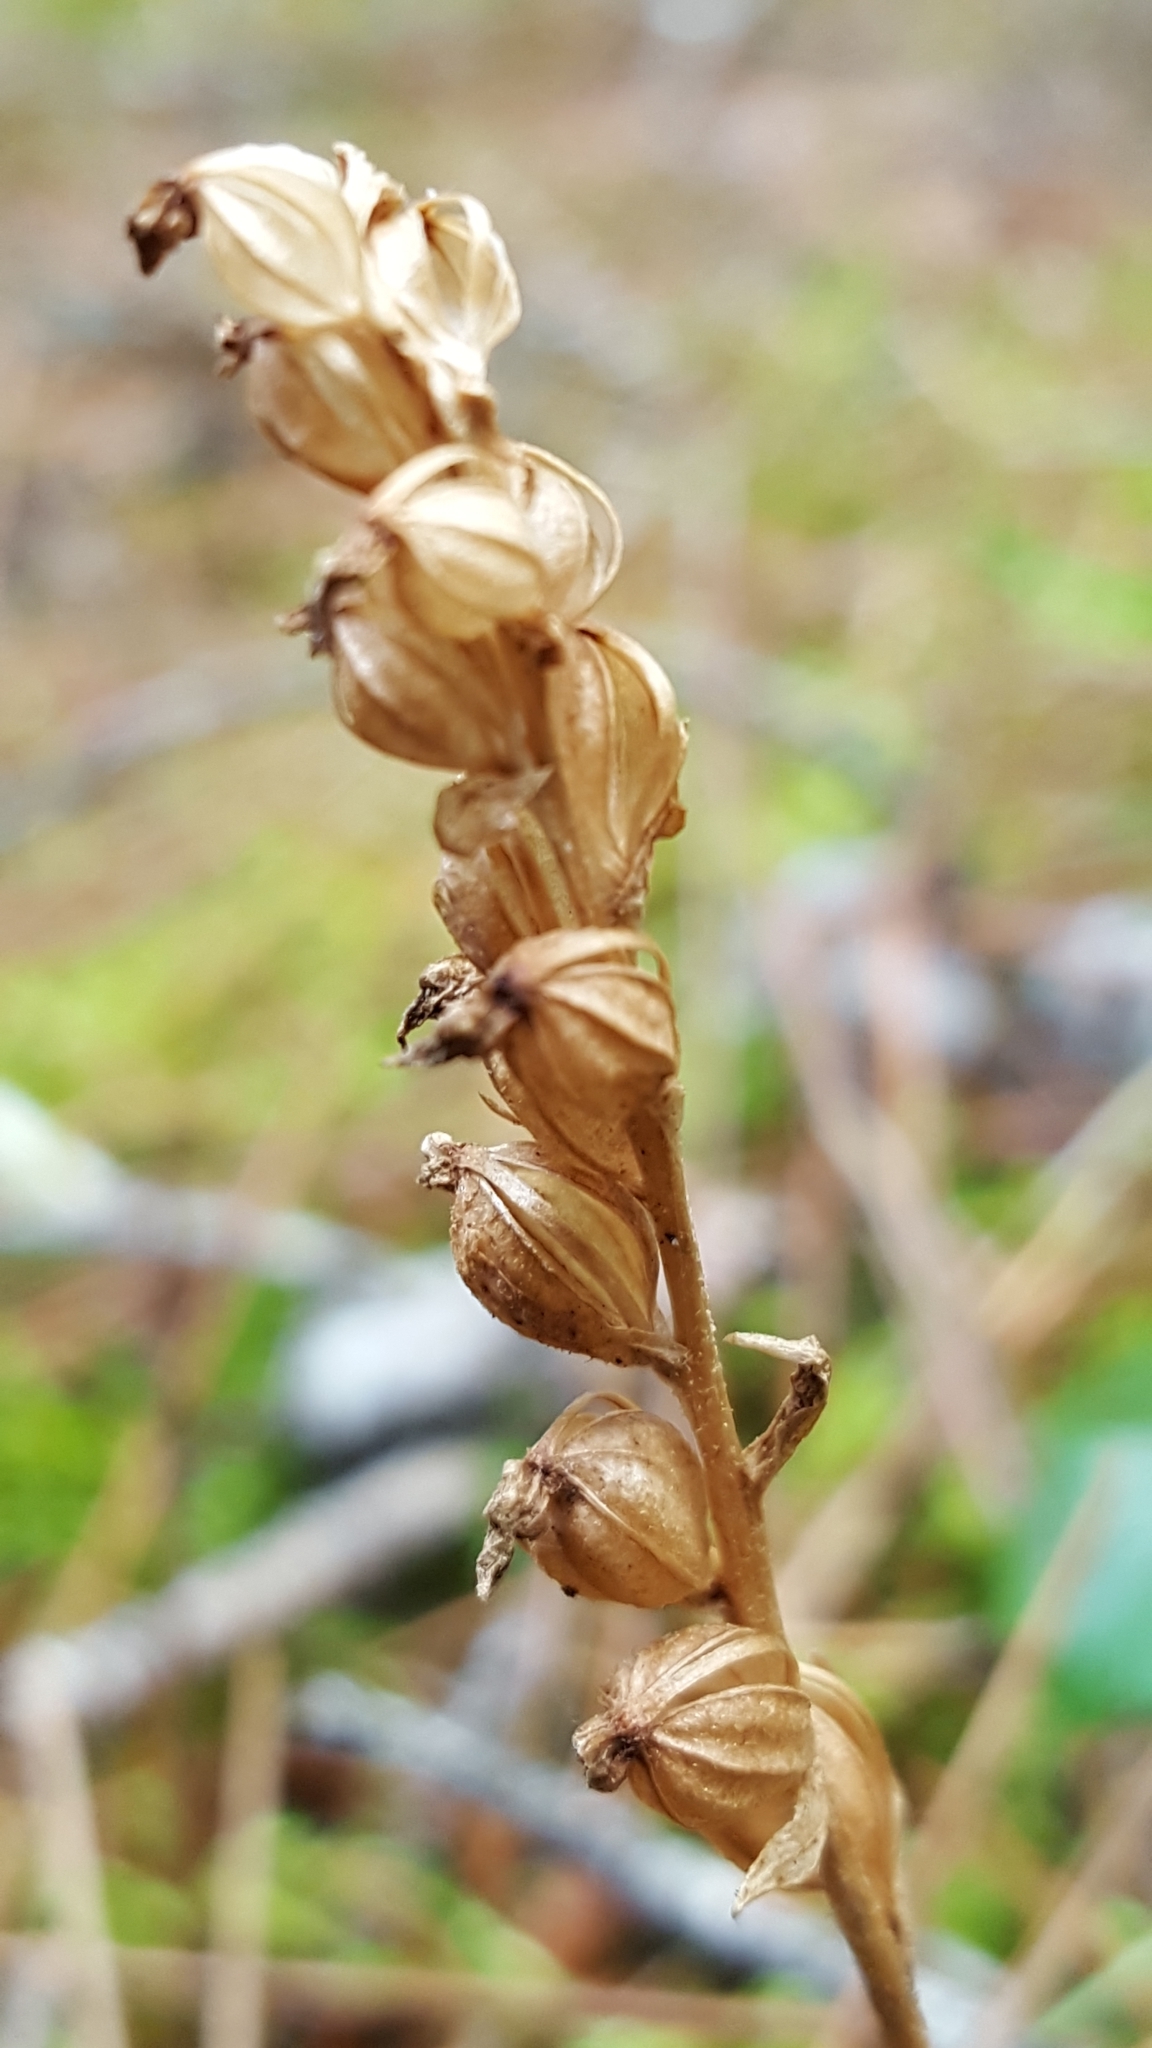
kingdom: Plantae
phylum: Tracheophyta
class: Liliopsida
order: Asparagales
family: Orchidaceae
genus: Goodyera
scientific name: Goodyera repens
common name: Creeping lady's-tresses
